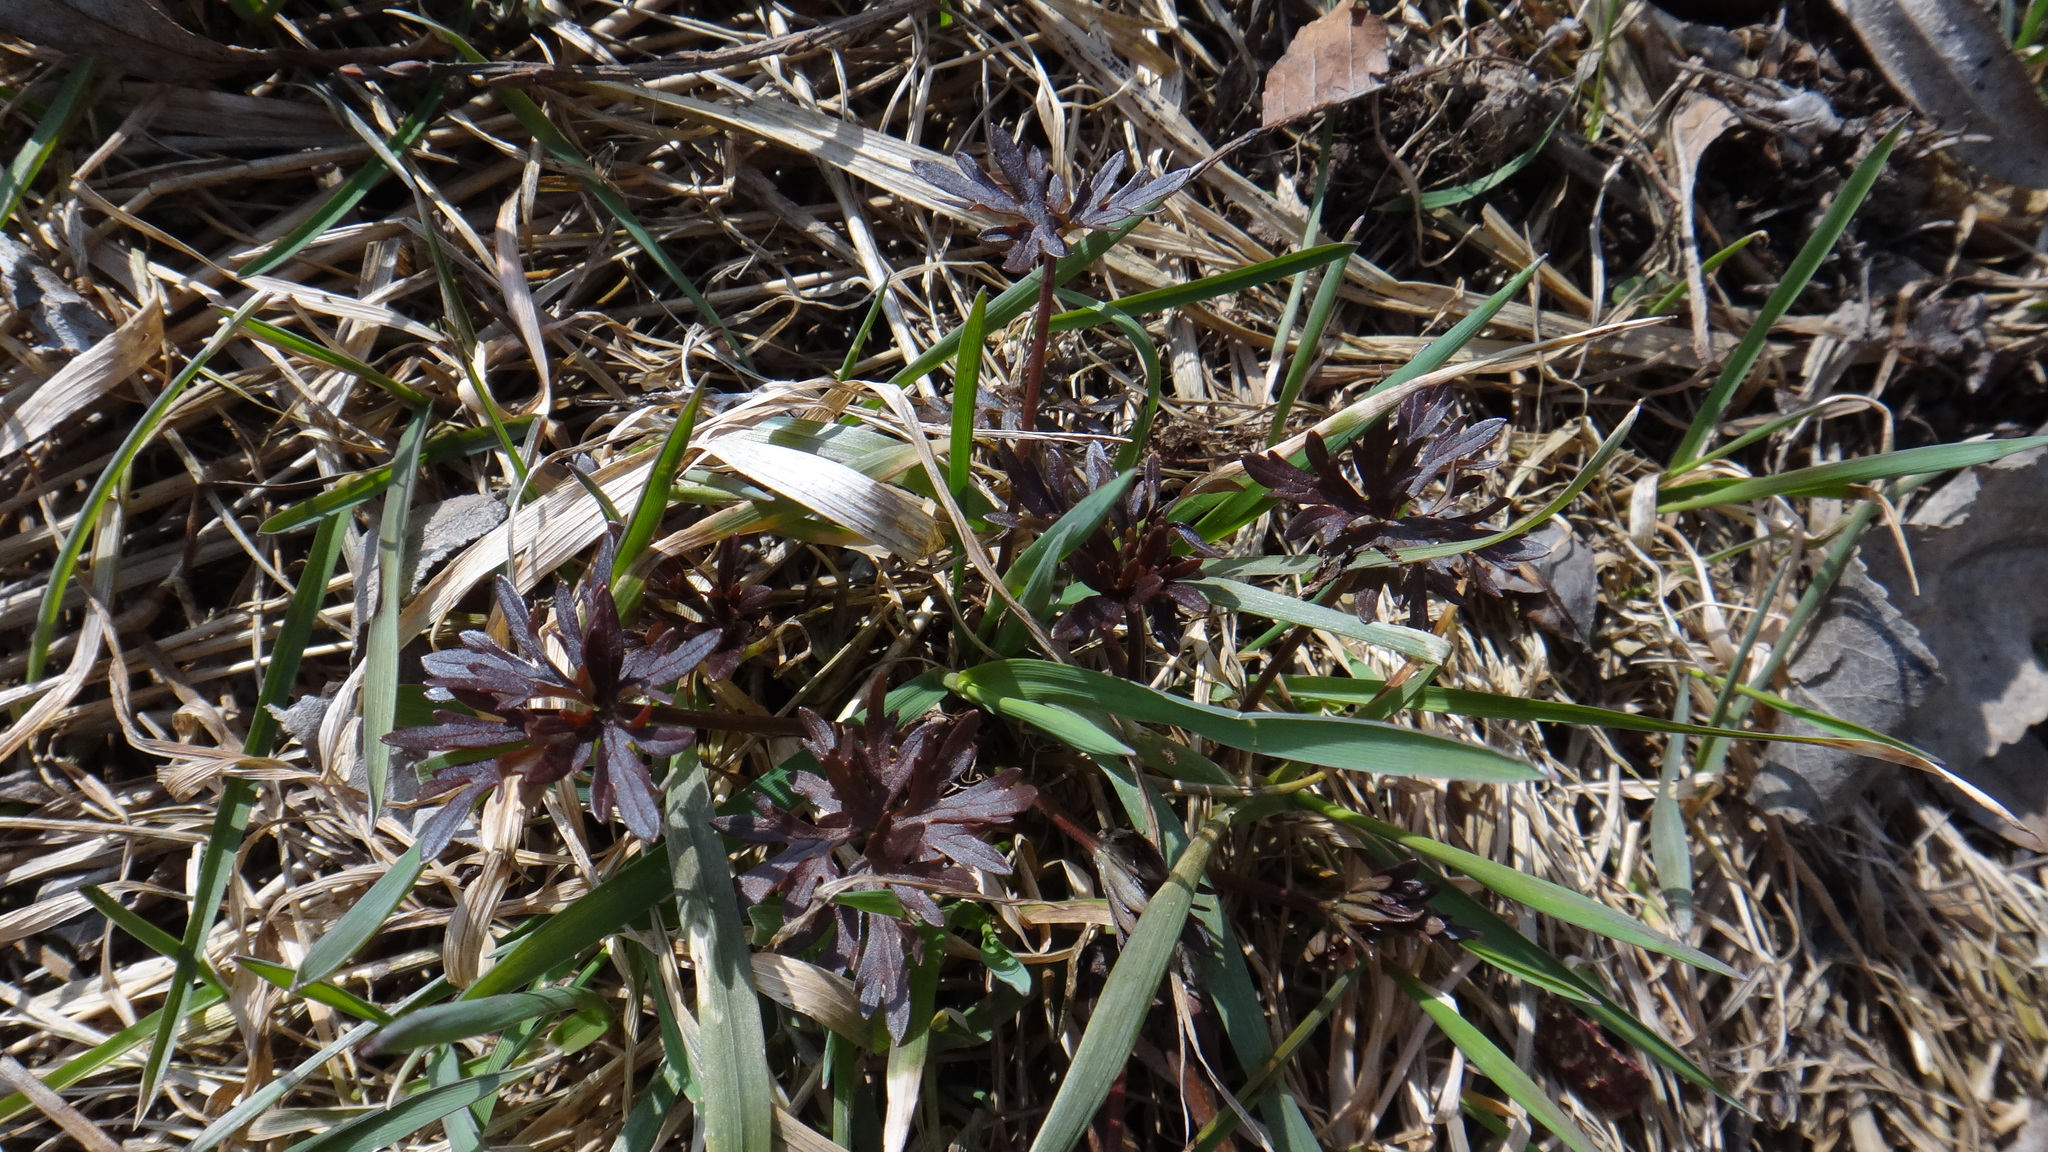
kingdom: Plantae
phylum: Tracheophyta
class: Magnoliopsida
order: Ranunculales
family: Ranunculaceae
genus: Ranunculus
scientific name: Ranunculus acris
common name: Meadow buttercup
